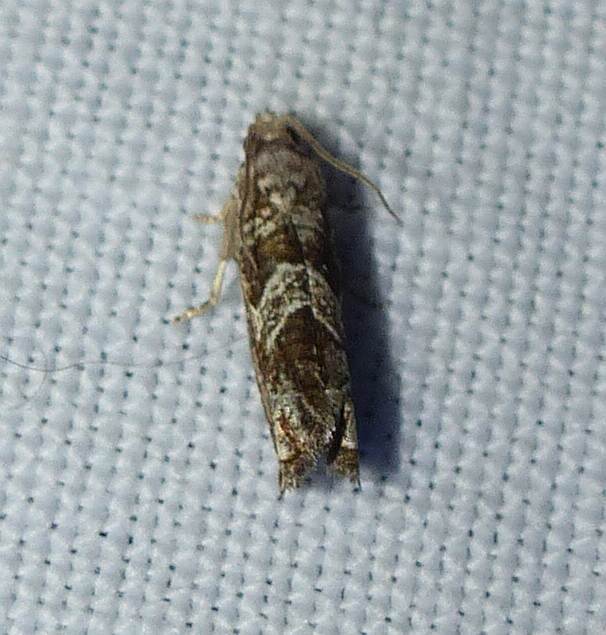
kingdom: Animalia
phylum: Arthropoda
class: Insecta
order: Lepidoptera
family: Tortricidae
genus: Sonia
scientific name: Sonia canadana
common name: Canadian sonia moth
